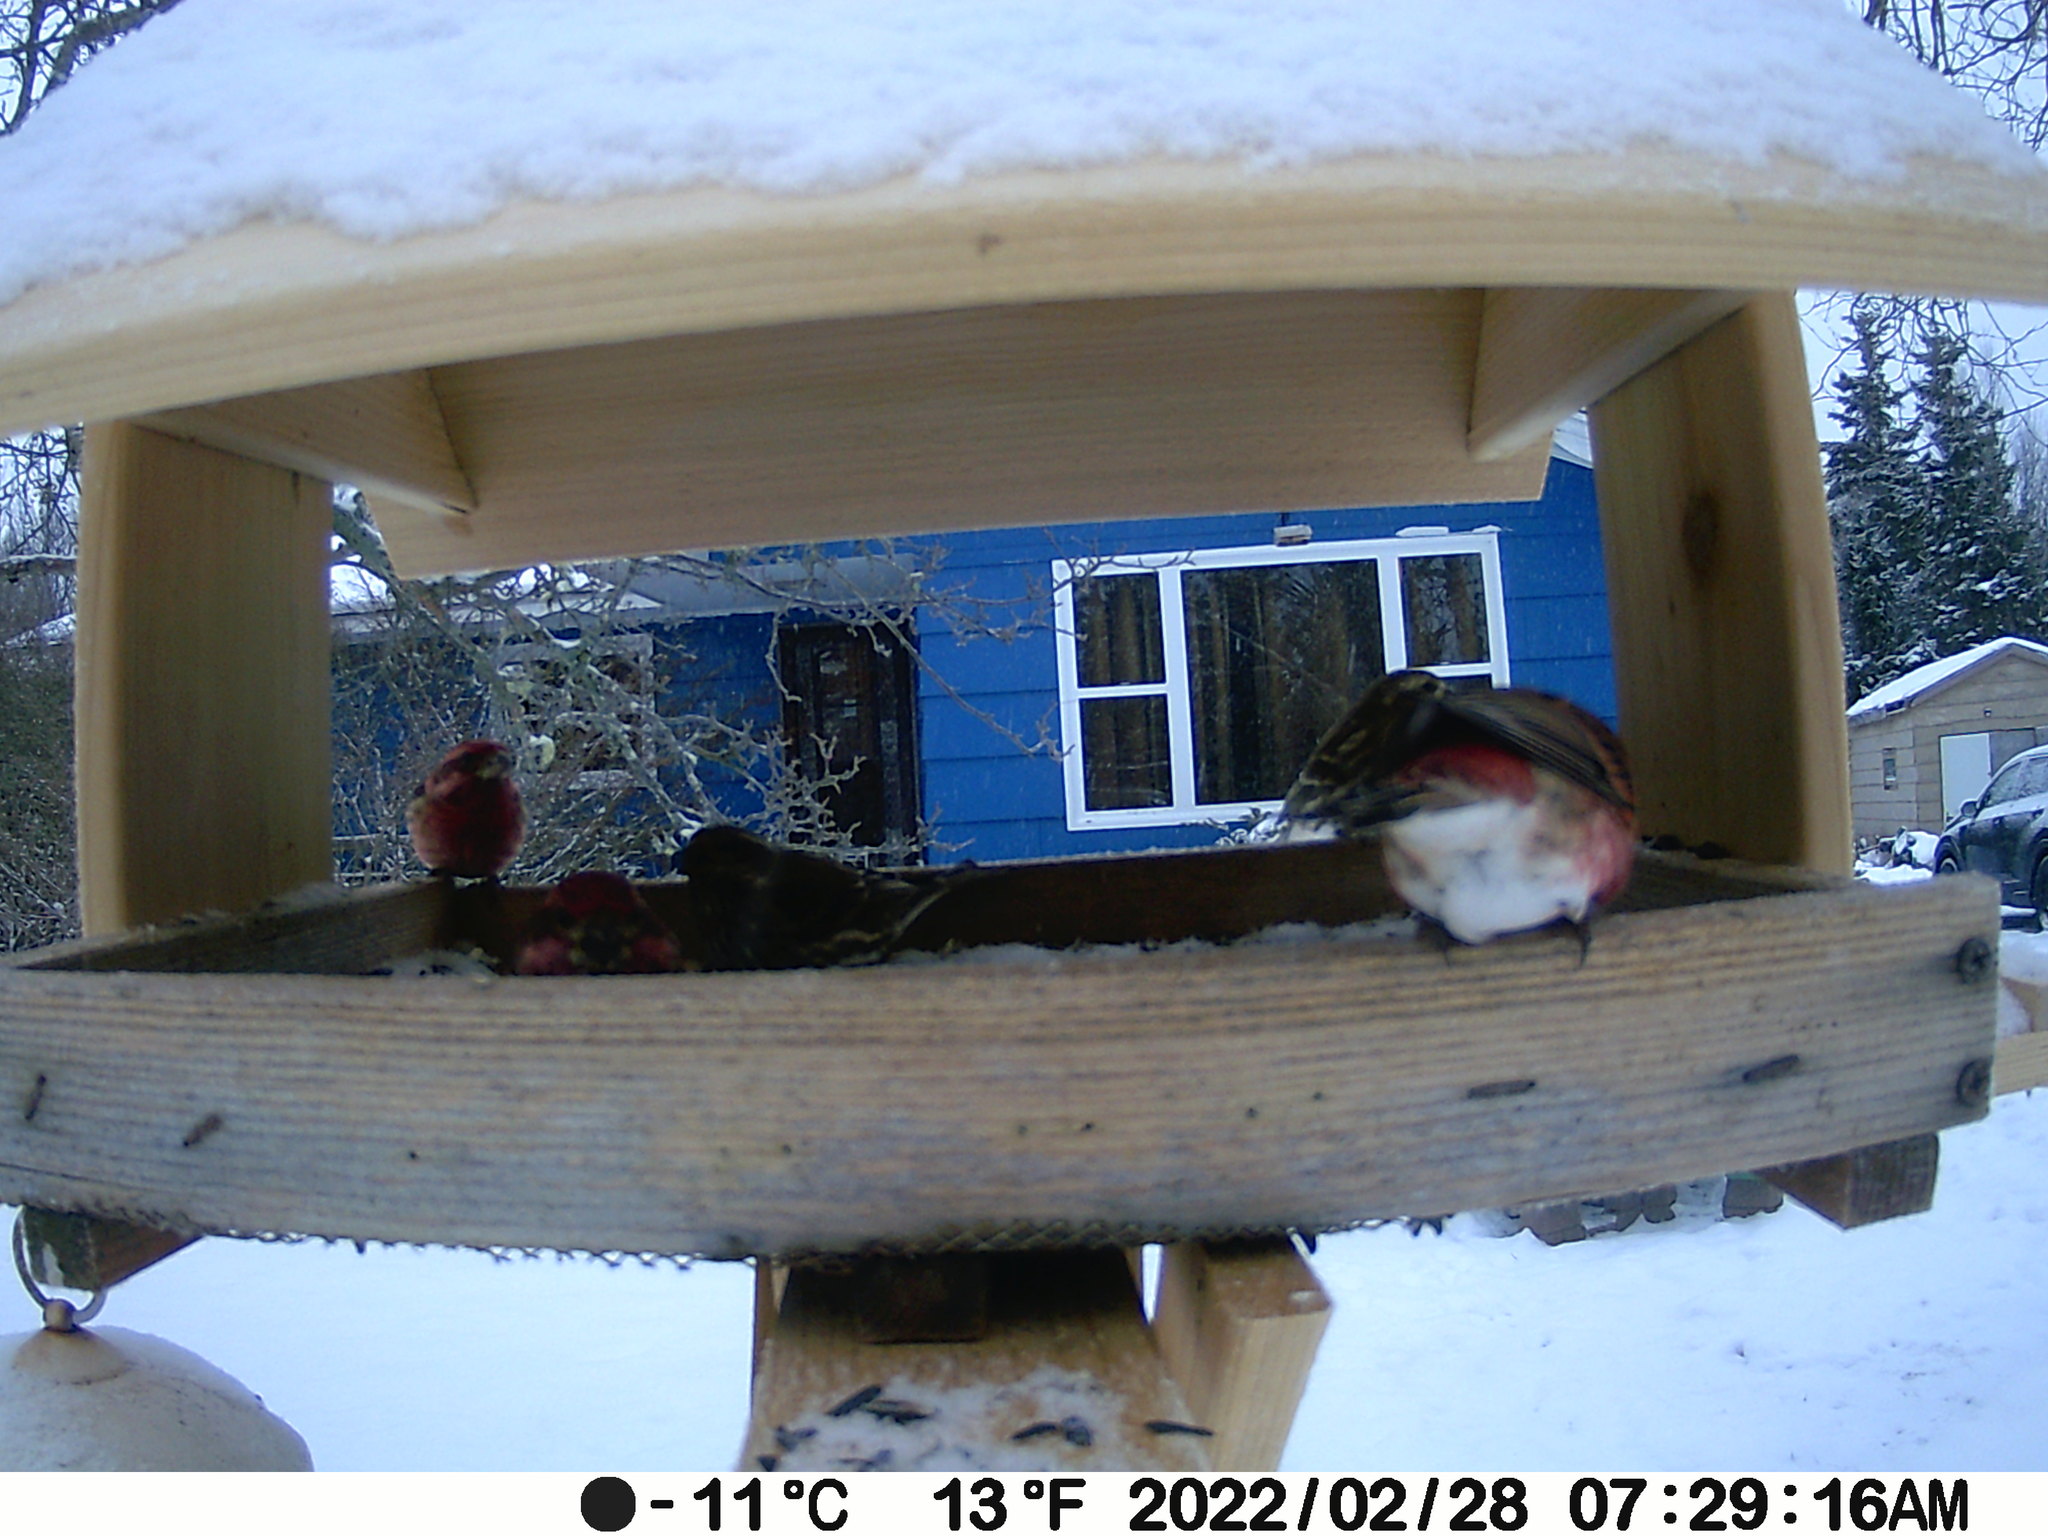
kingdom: Animalia
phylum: Chordata
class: Aves
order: Passeriformes
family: Fringillidae
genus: Haemorhous
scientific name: Haemorhous purpureus
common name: Purple finch
